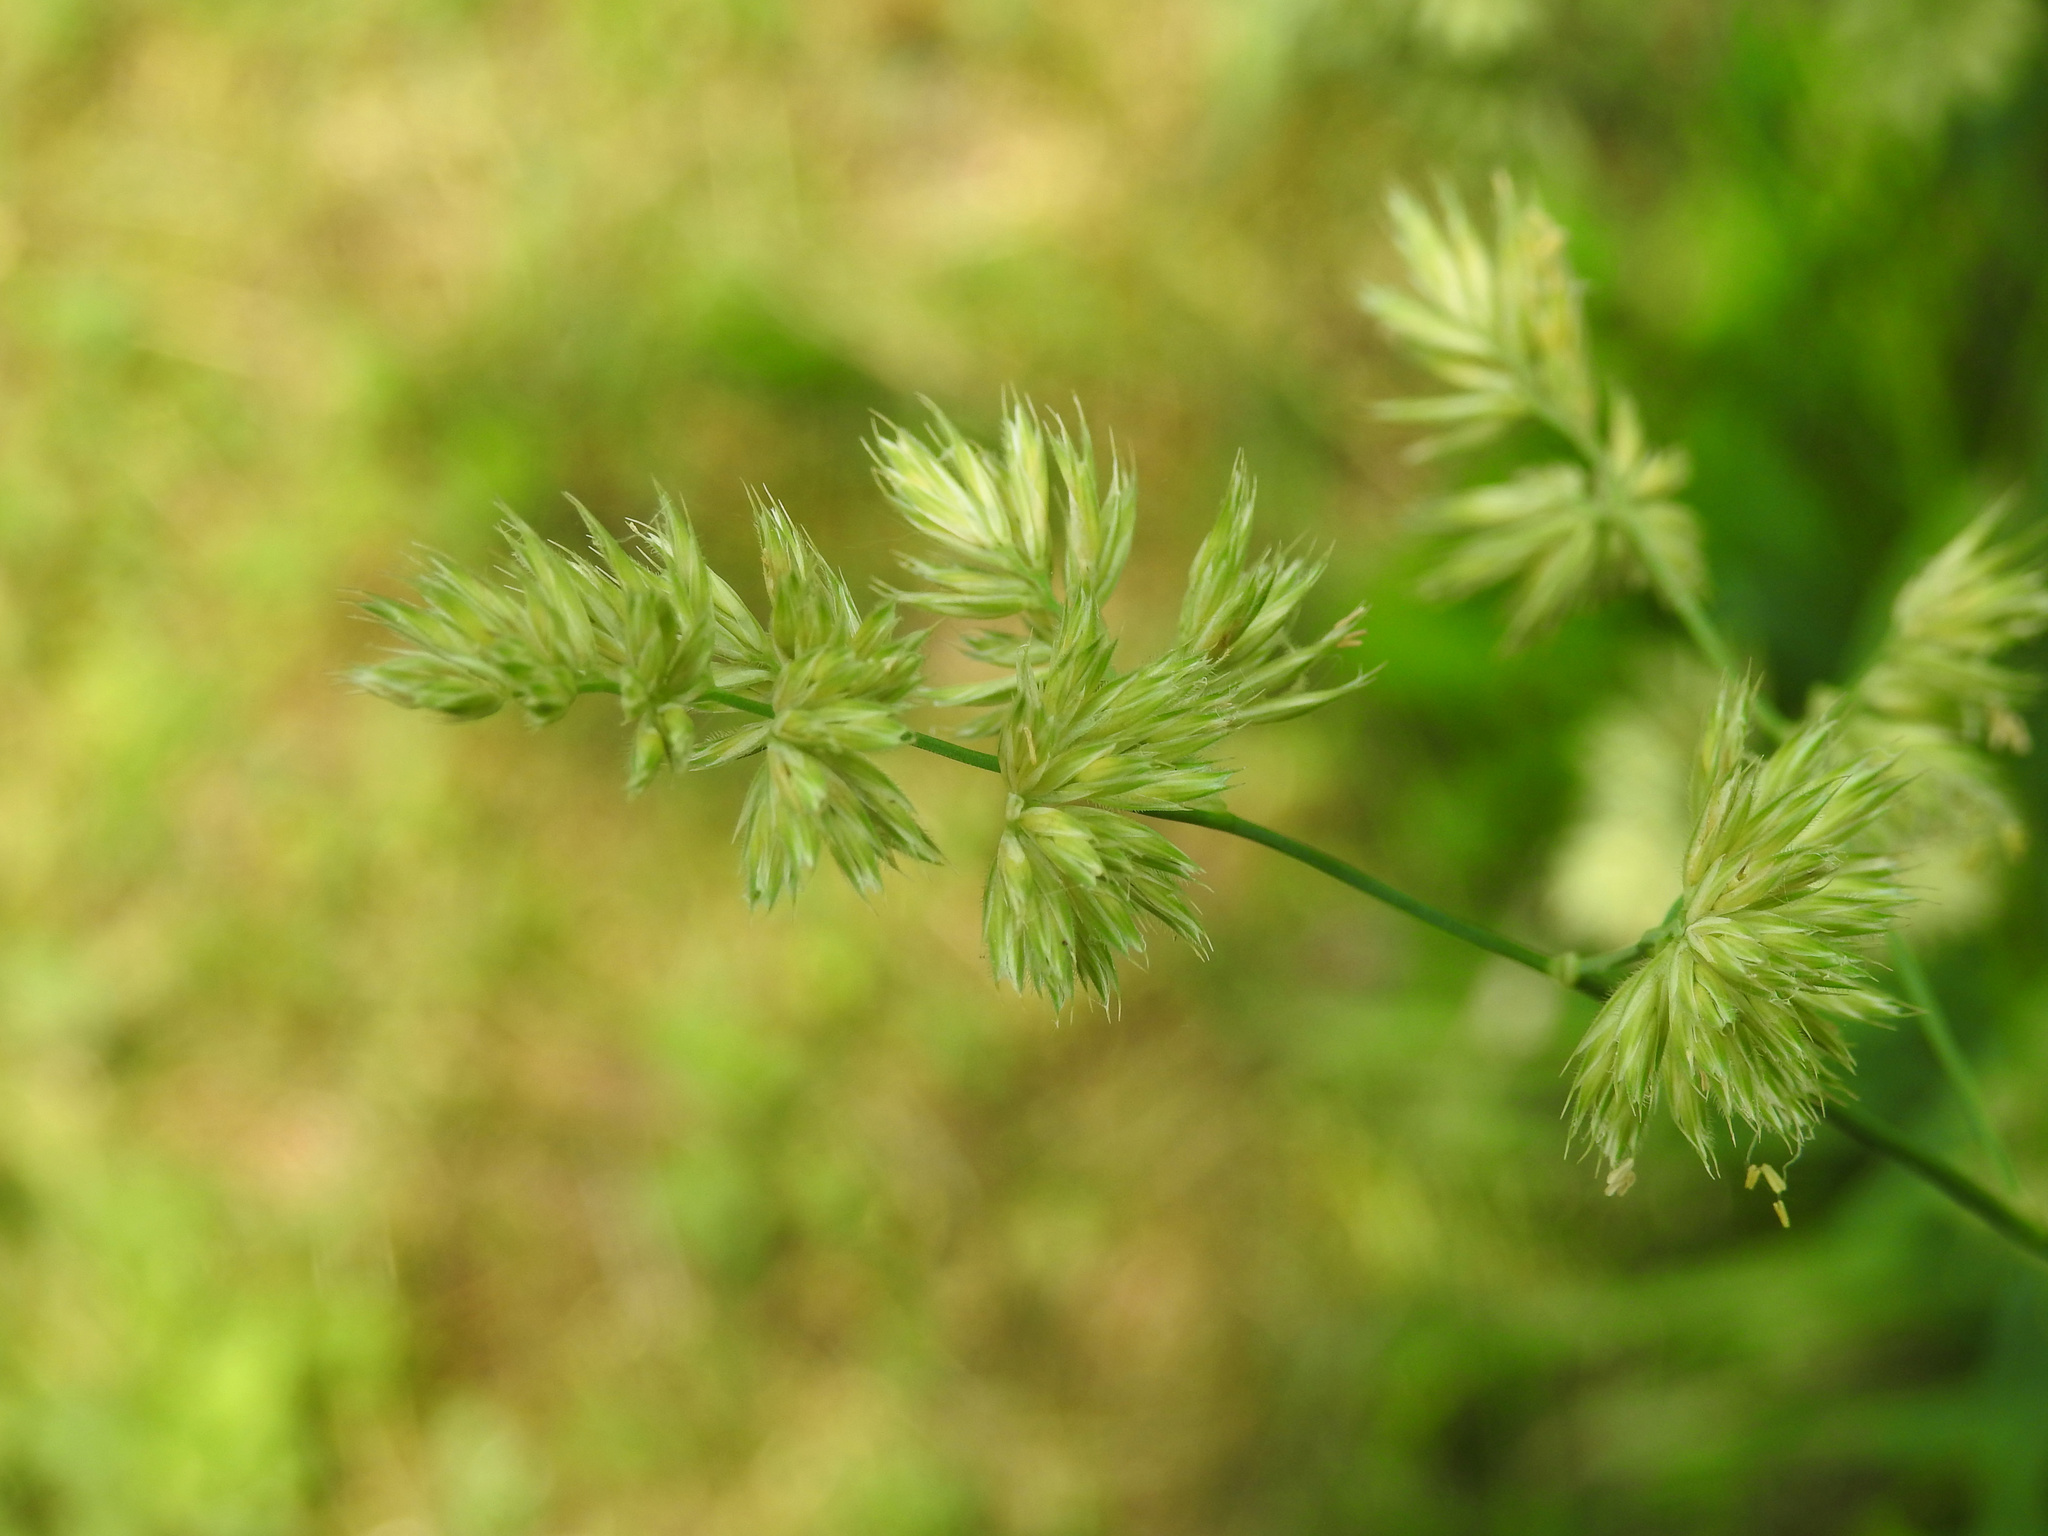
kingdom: Plantae
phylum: Tracheophyta
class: Liliopsida
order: Poales
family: Poaceae
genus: Dactylis
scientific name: Dactylis glomerata
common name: Orchardgrass
